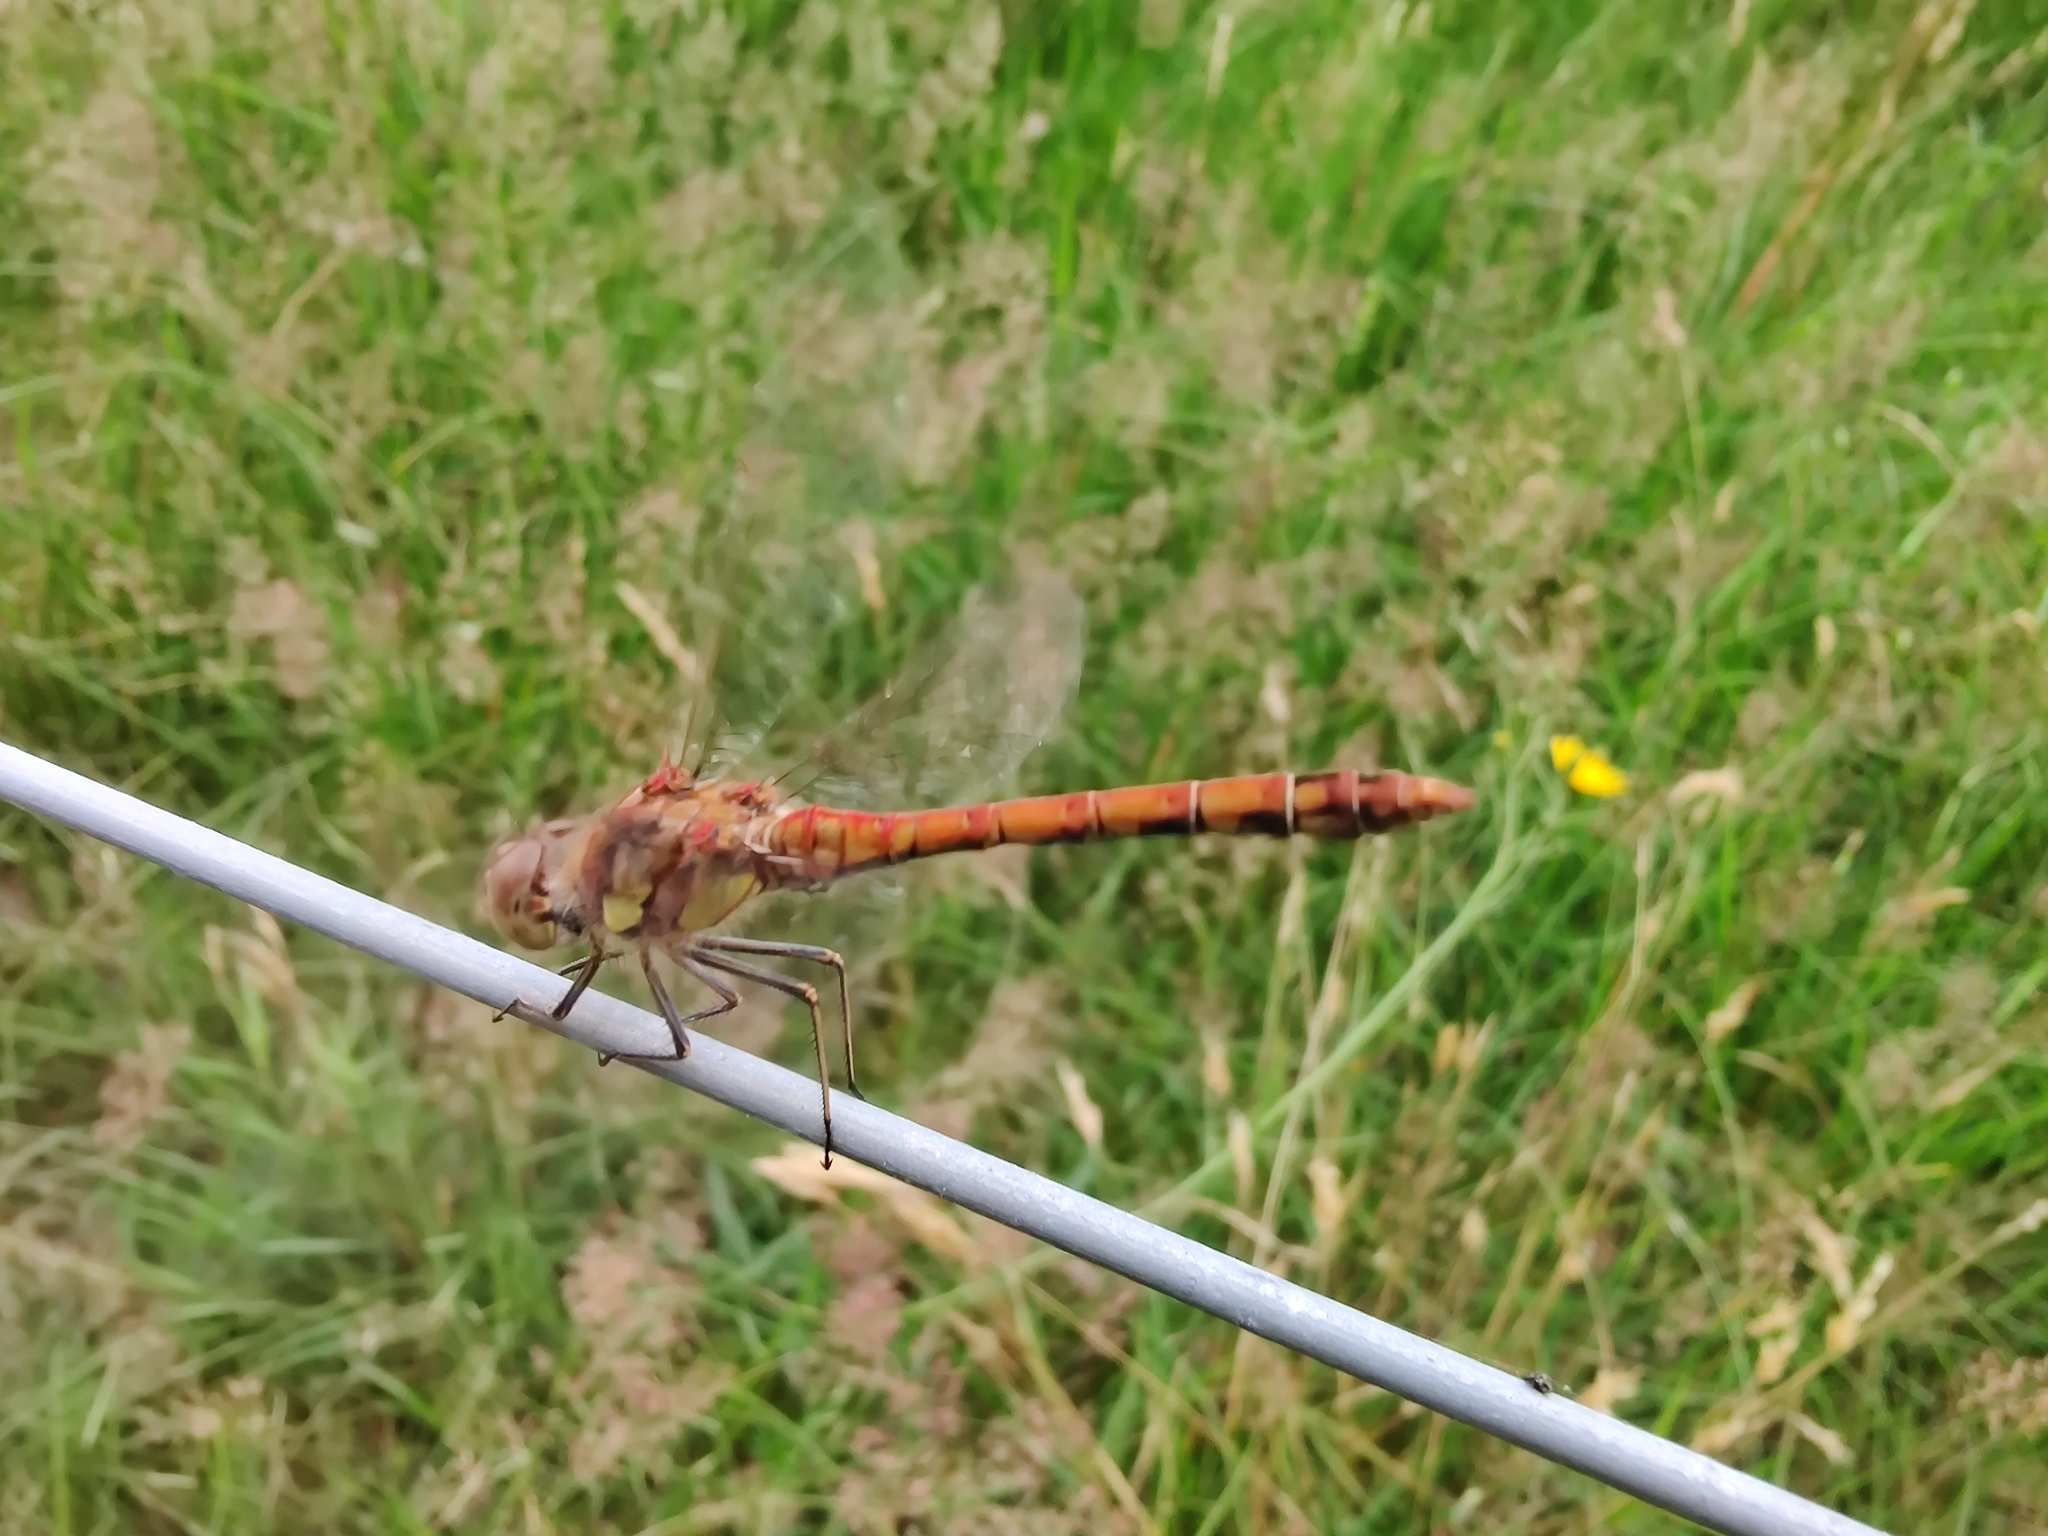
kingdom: Animalia
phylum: Arthropoda
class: Insecta
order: Odonata
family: Libellulidae
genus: Sympetrum
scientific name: Sympetrum striolatum
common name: Common darter
